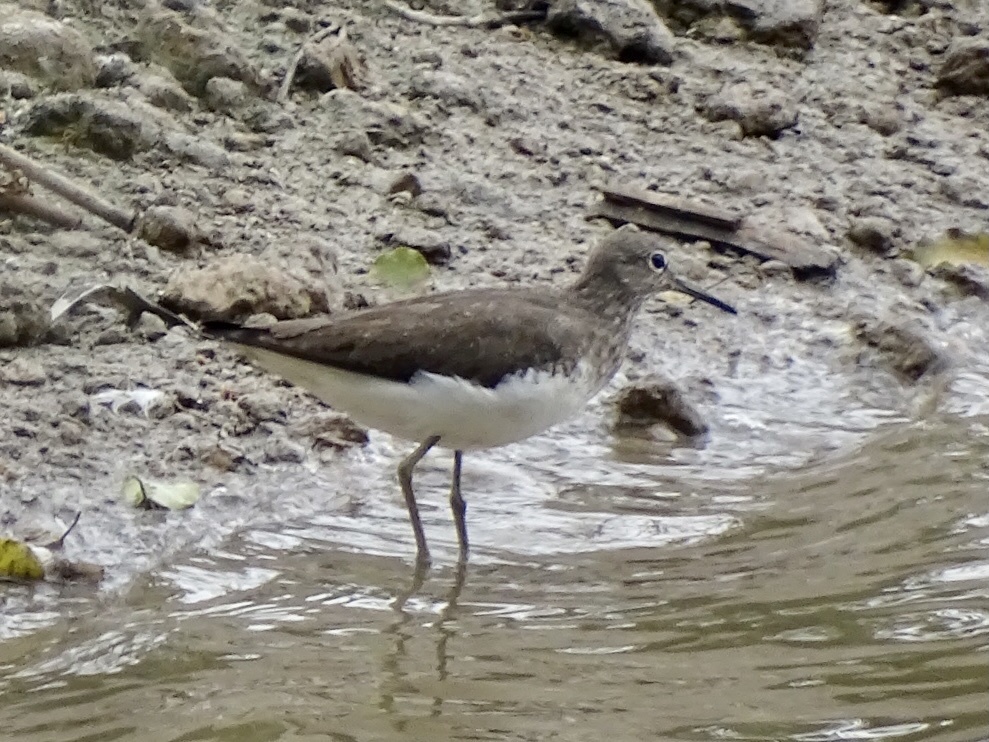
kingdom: Animalia
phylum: Chordata
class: Aves
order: Charadriiformes
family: Scolopacidae
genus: Tringa
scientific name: Tringa ochropus
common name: Green sandpiper
